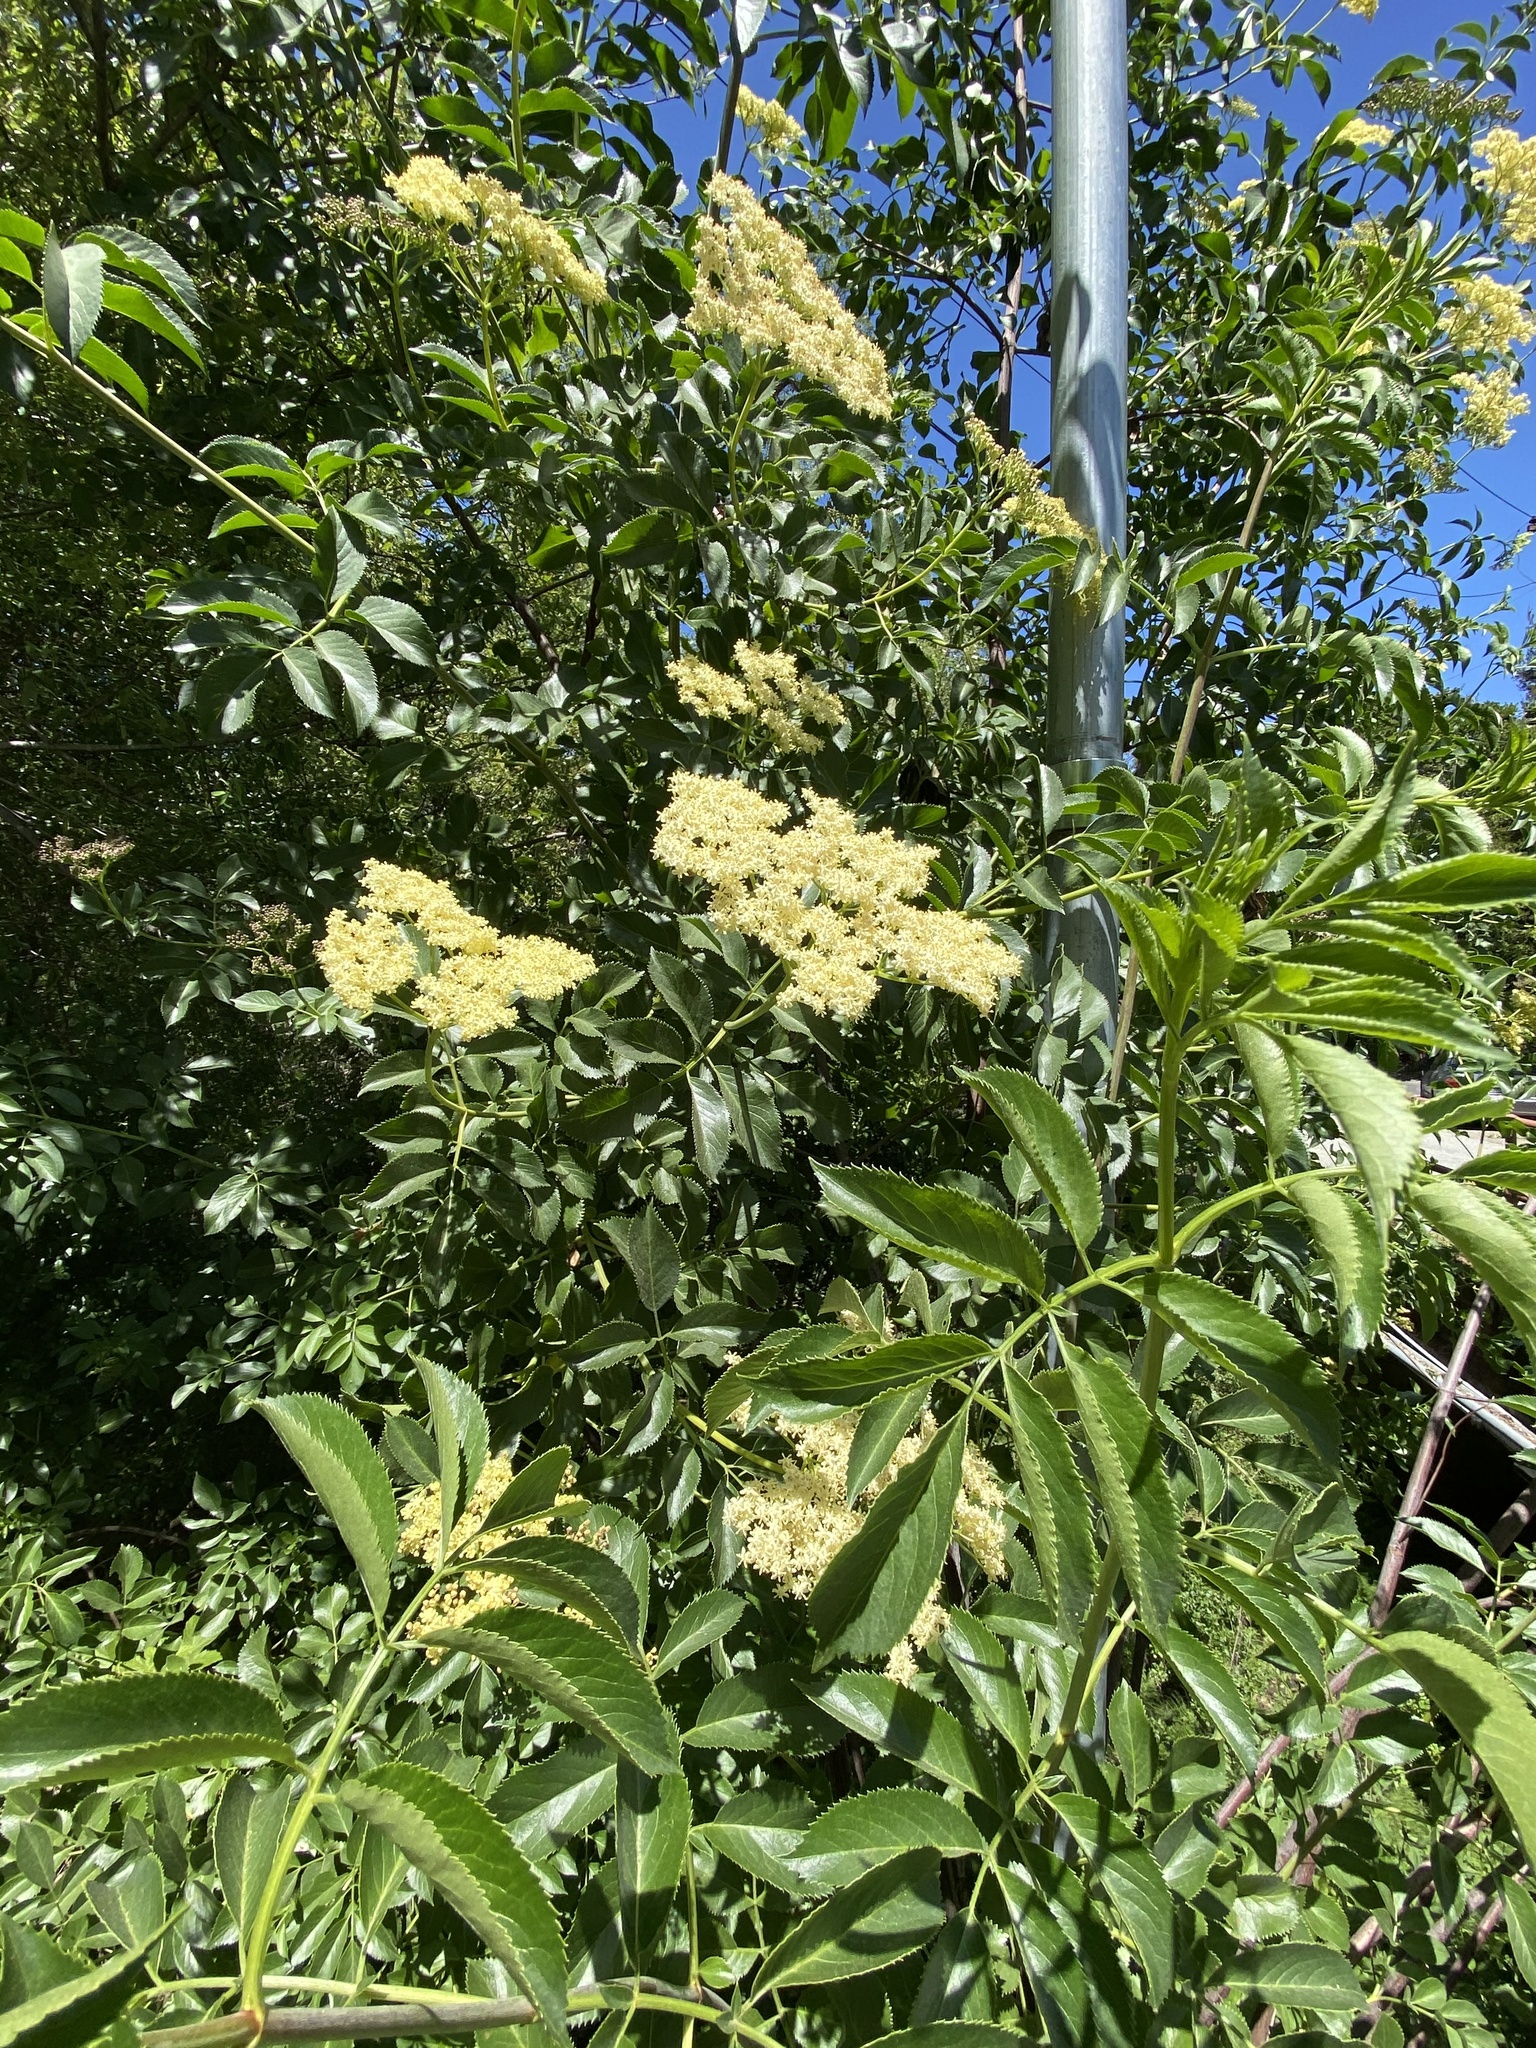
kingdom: Plantae
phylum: Tracheophyta
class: Magnoliopsida
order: Dipsacales
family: Viburnaceae
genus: Sambucus
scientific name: Sambucus cerulea
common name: Blue elder
